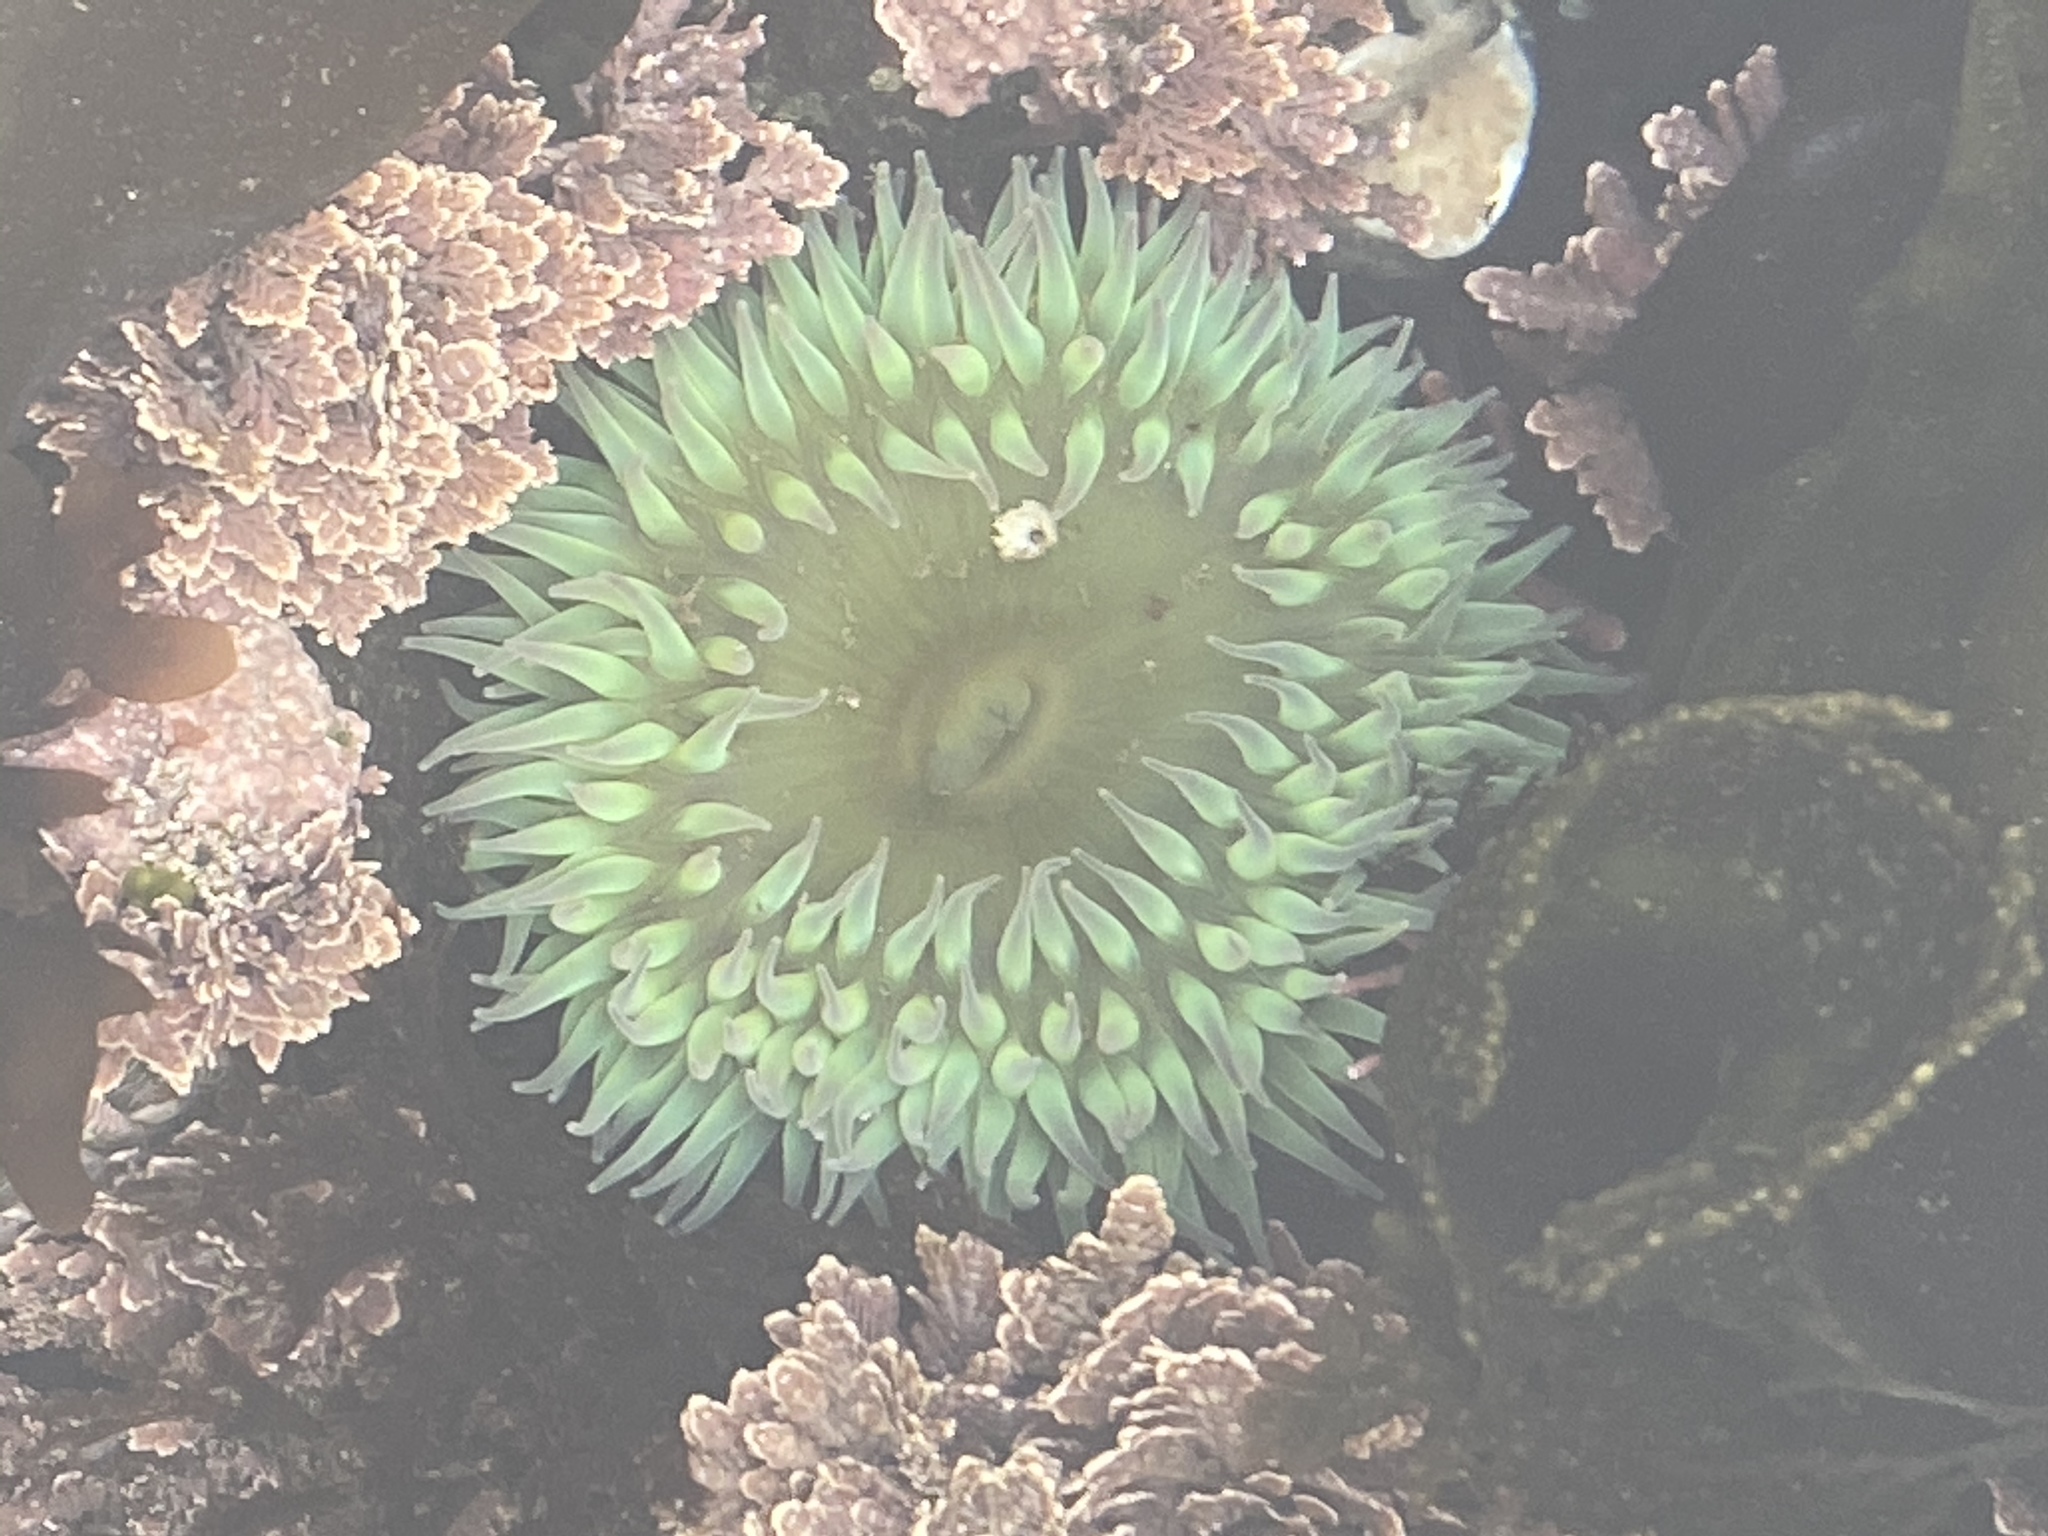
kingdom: Animalia
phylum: Cnidaria
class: Anthozoa
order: Actiniaria
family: Actiniidae
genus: Anthopleura
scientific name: Anthopleura xanthogrammica
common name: Giant green anemone
